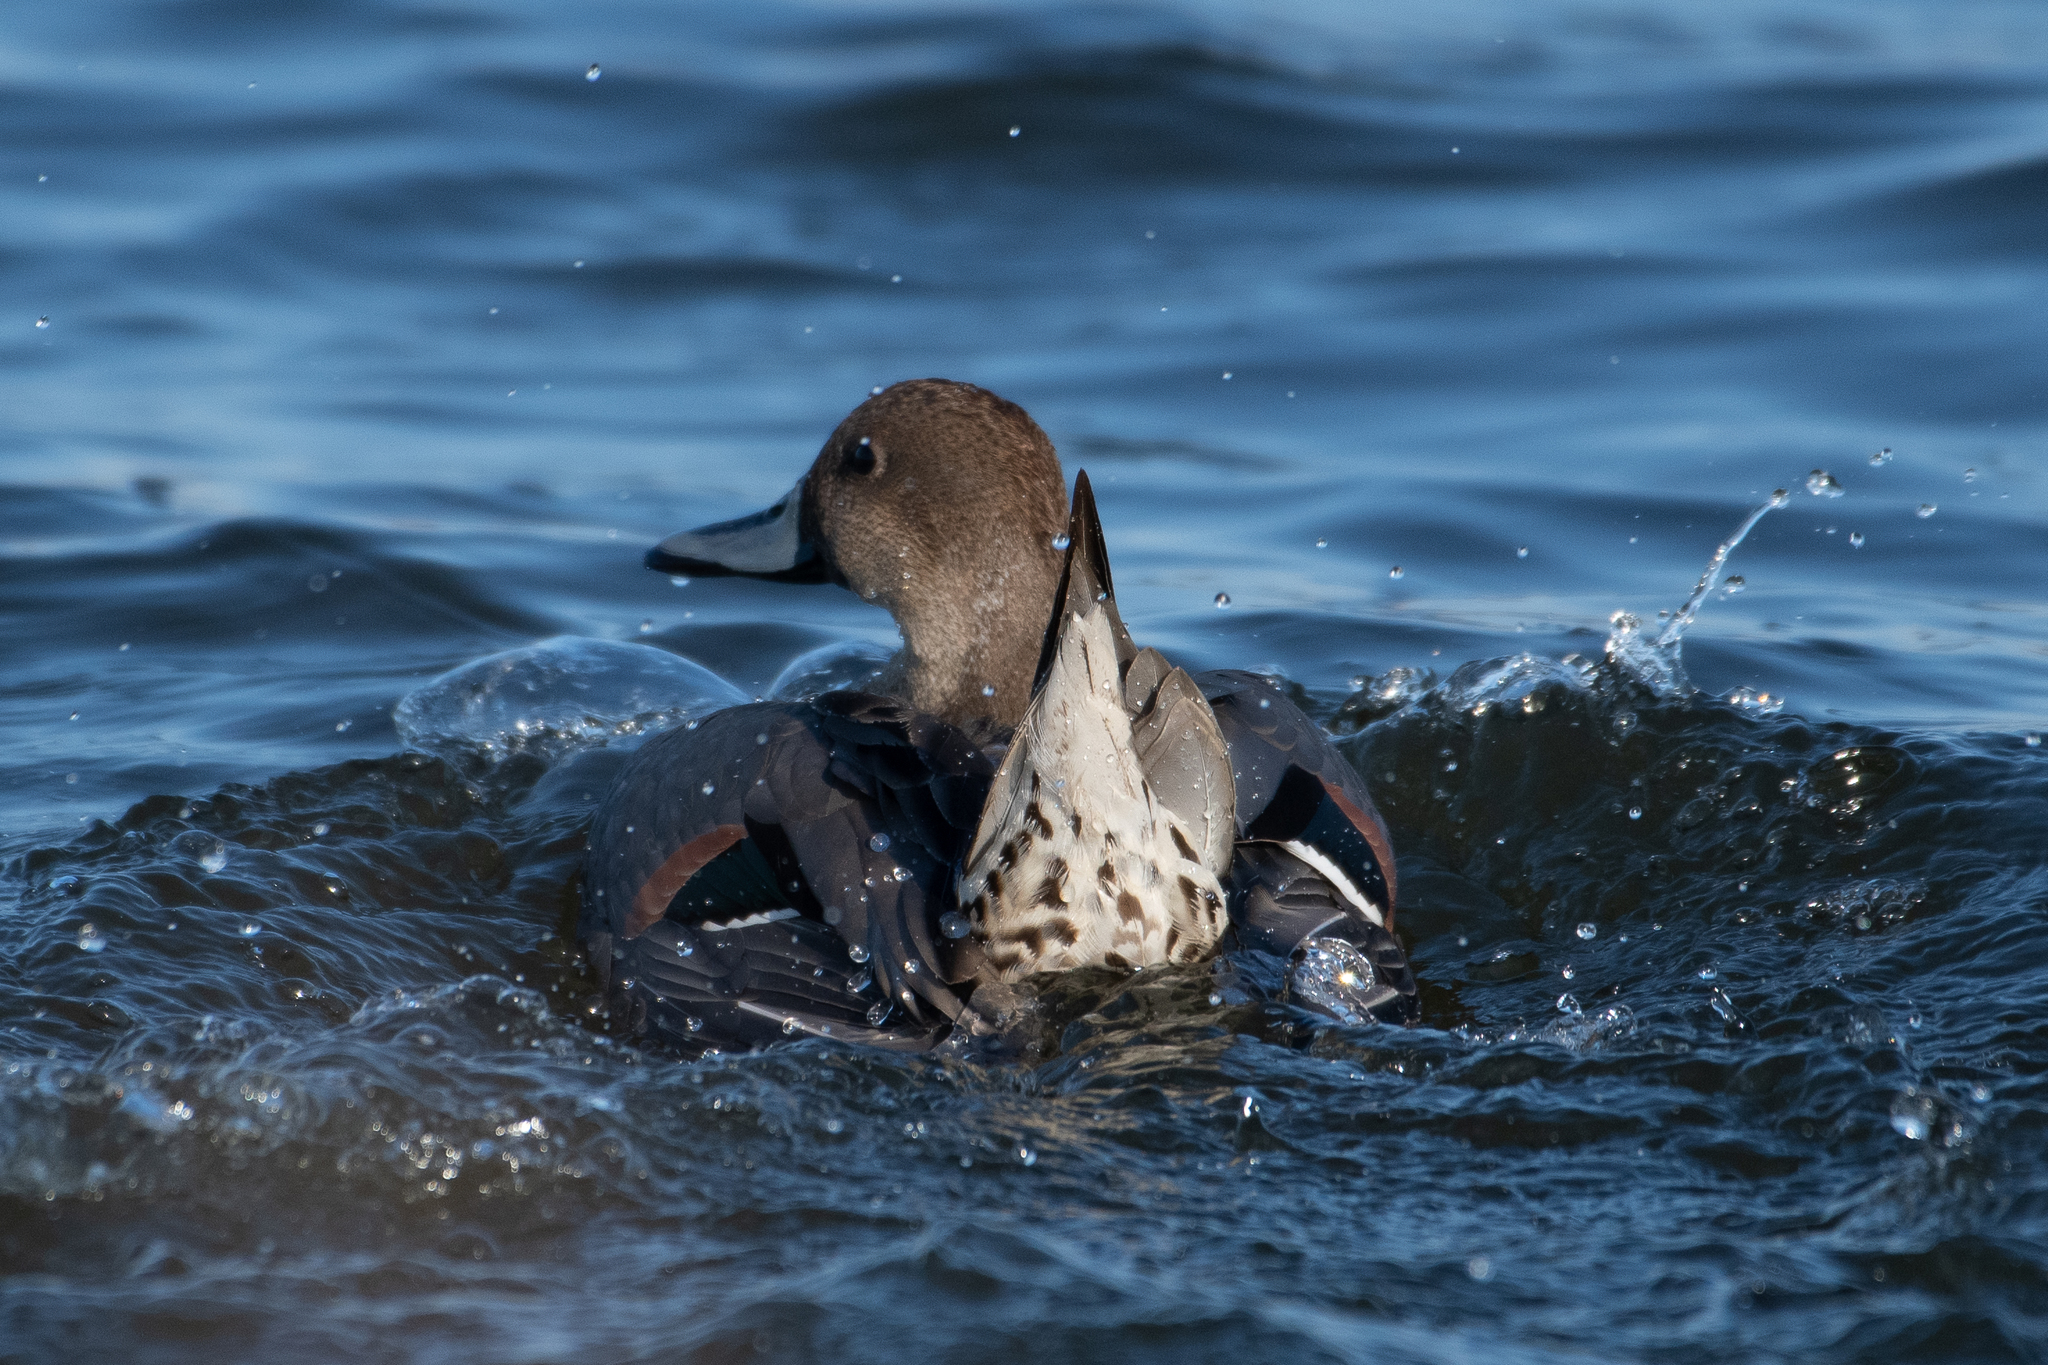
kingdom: Animalia
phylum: Chordata
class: Aves
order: Anseriformes
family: Anatidae
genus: Anas
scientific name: Anas acuta
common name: Northern pintail
